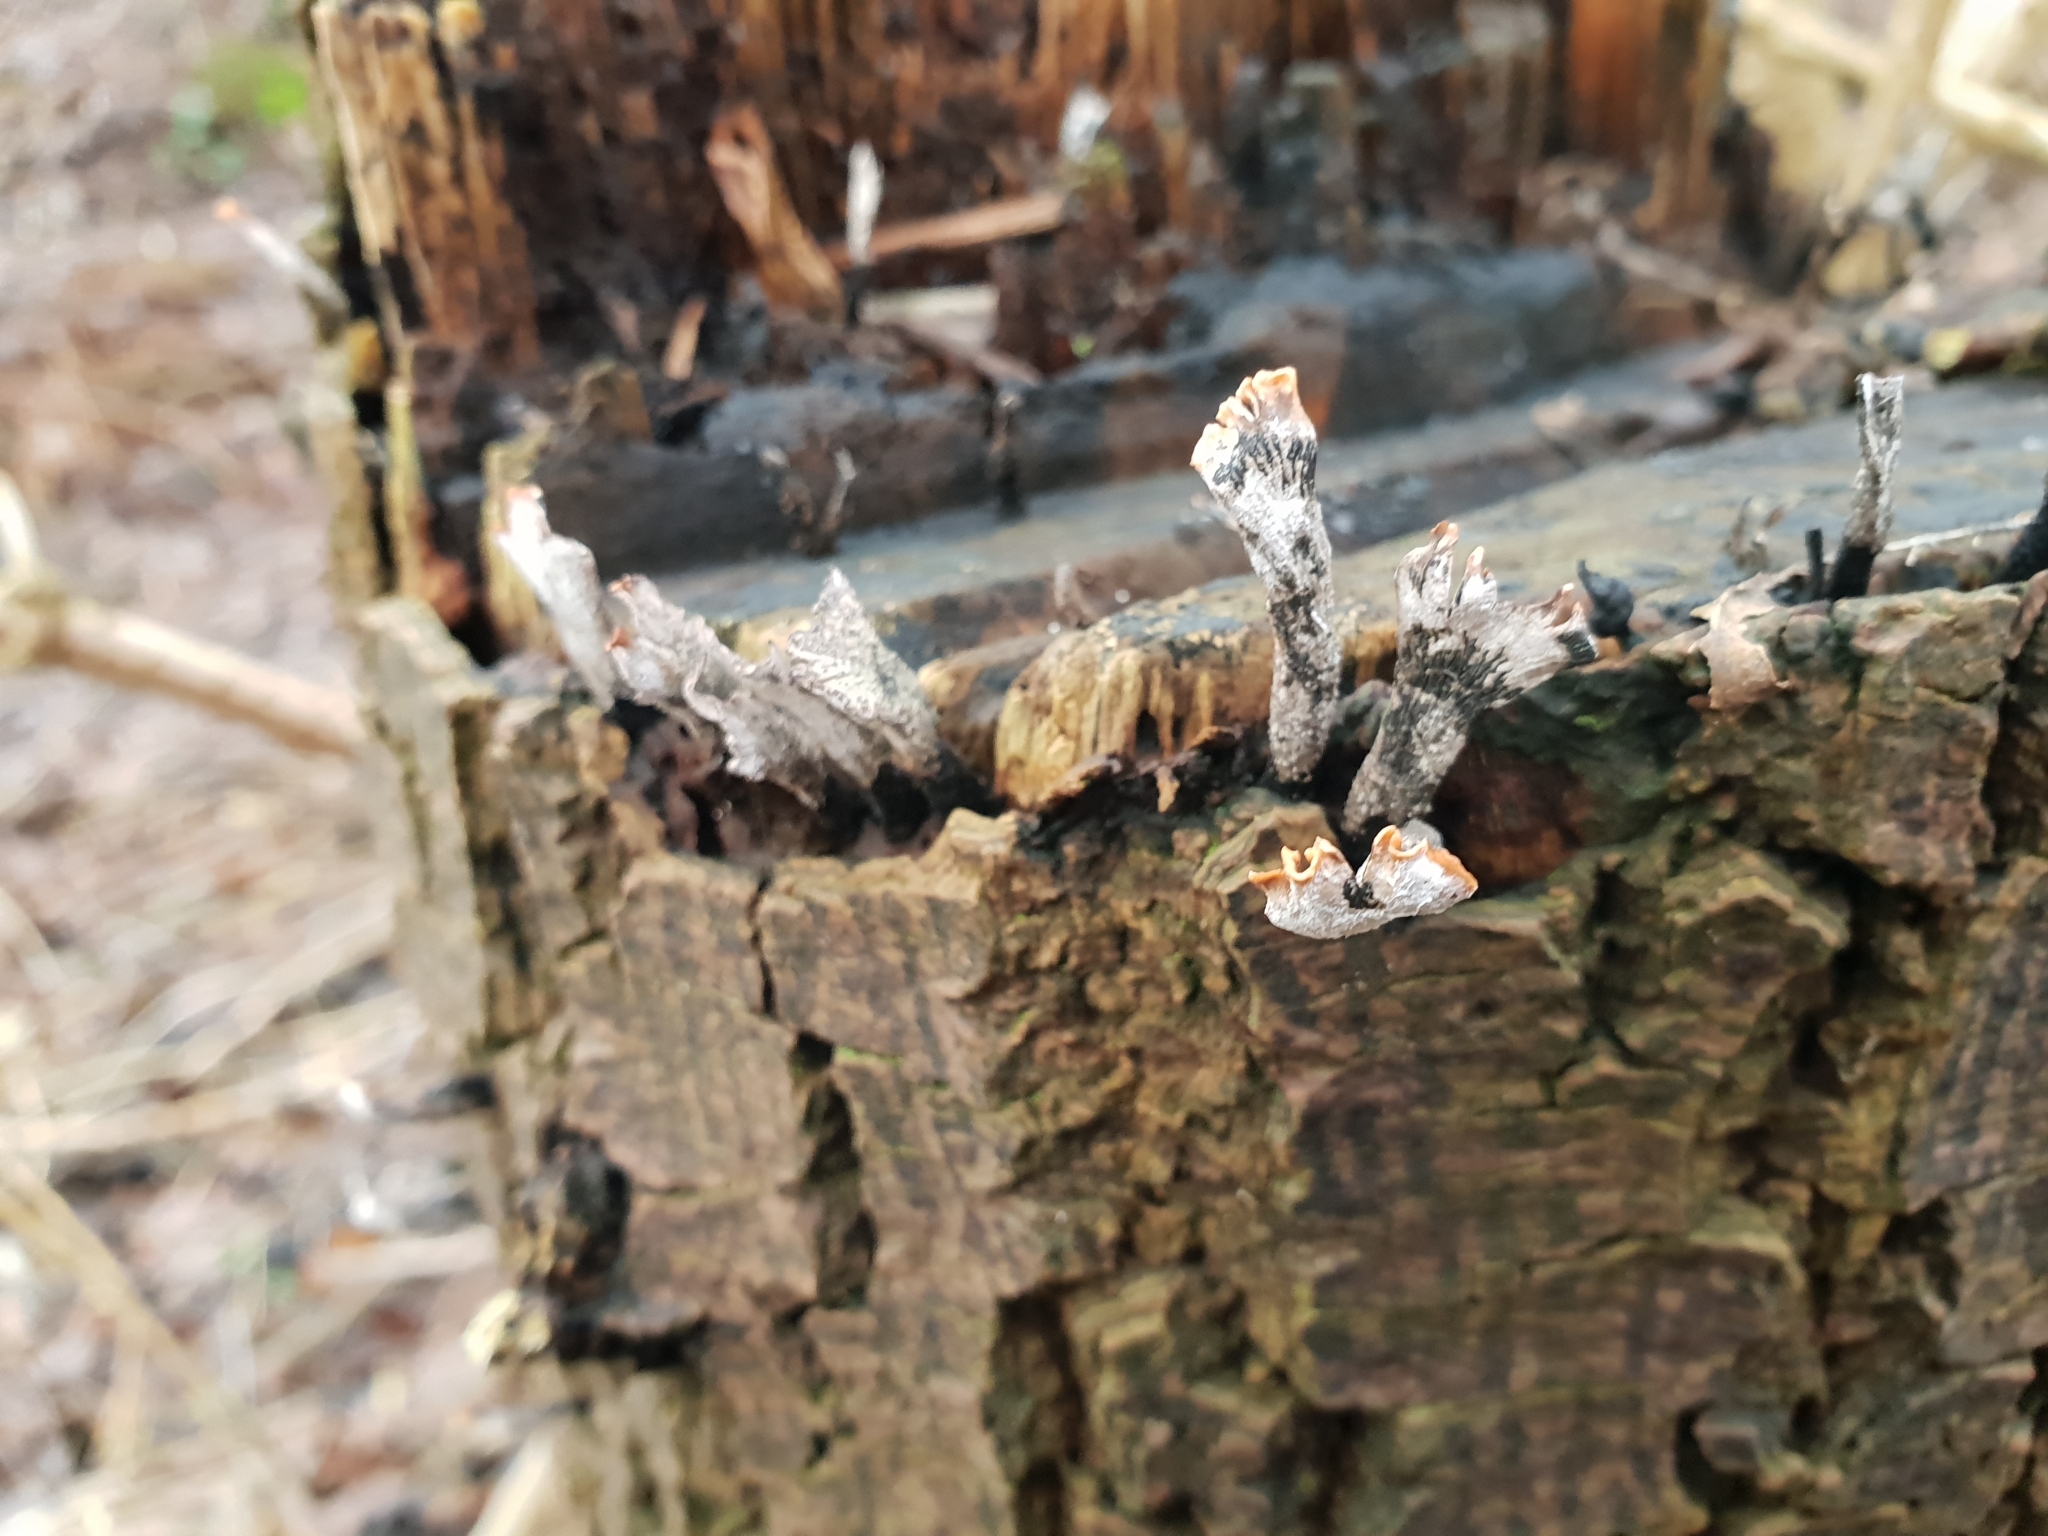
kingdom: Fungi
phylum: Ascomycota
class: Sordariomycetes
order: Xylariales
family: Xylariaceae
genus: Xylaria
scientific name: Xylaria hypoxylon
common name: Candle-snuff fungus
